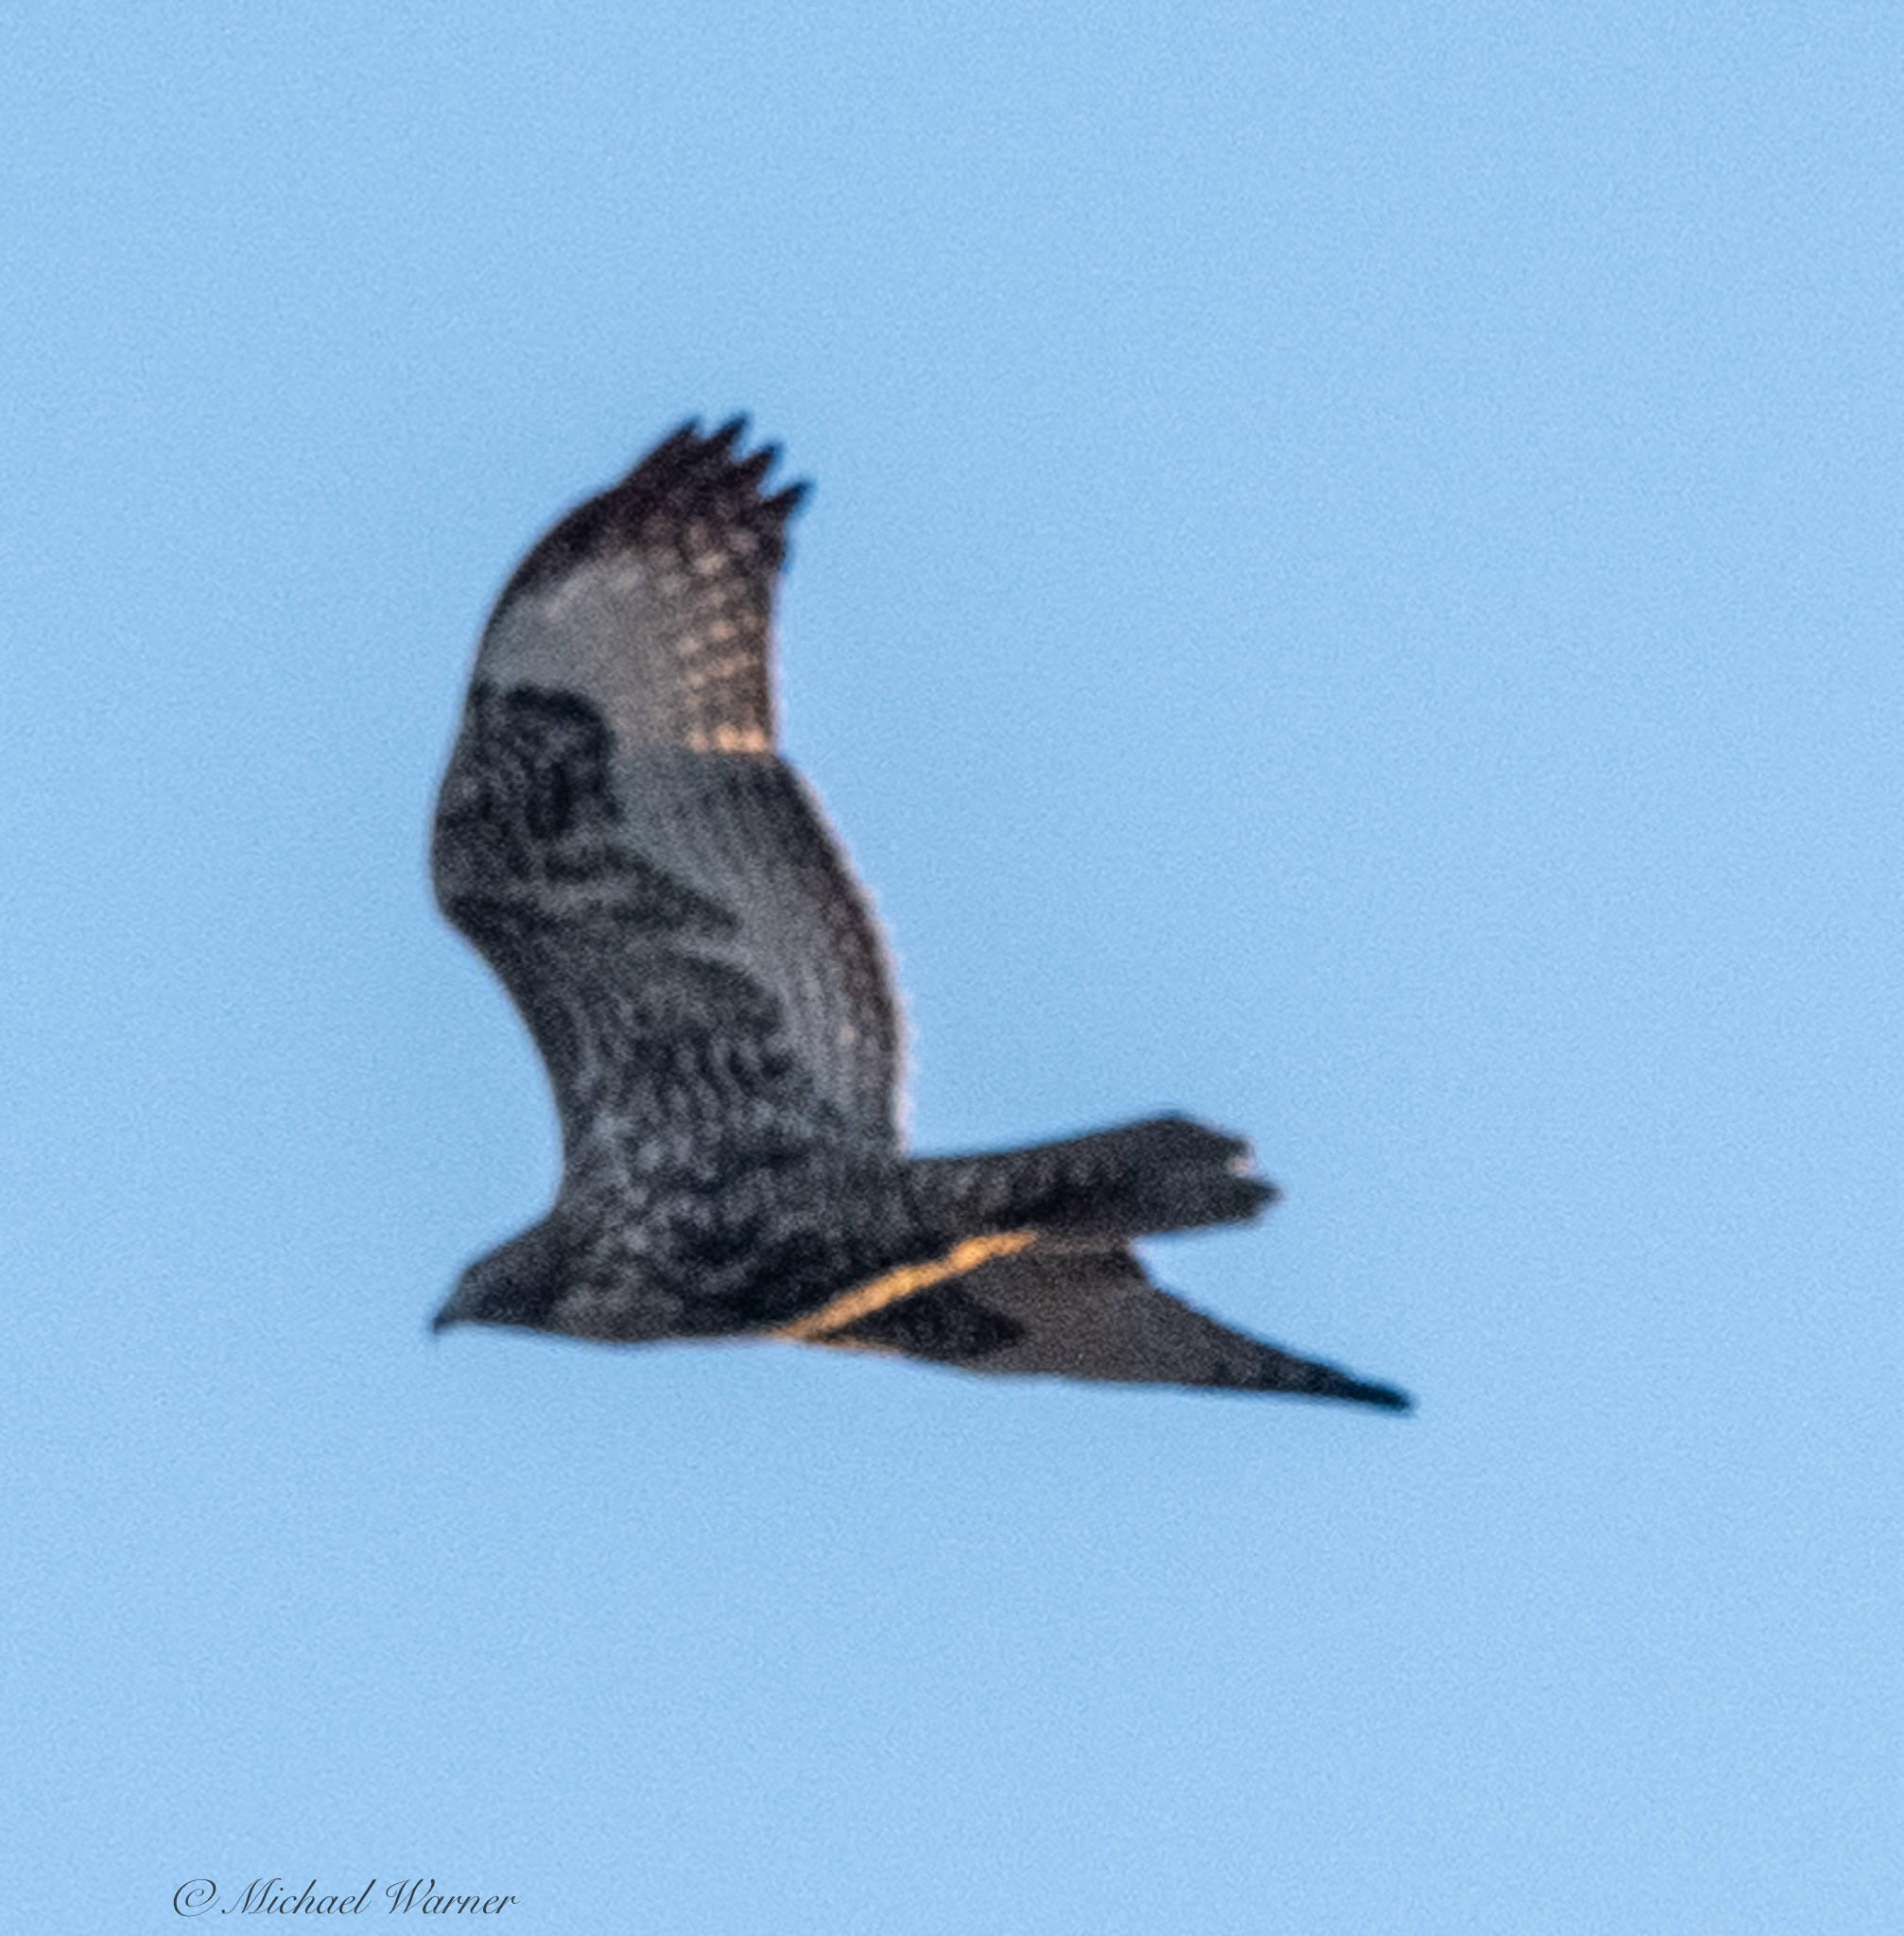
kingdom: Animalia
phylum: Chordata
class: Aves
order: Accipitriformes
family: Accipitridae
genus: Buteo
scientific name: Buteo jamaicensis
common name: Red-tailed hawk
